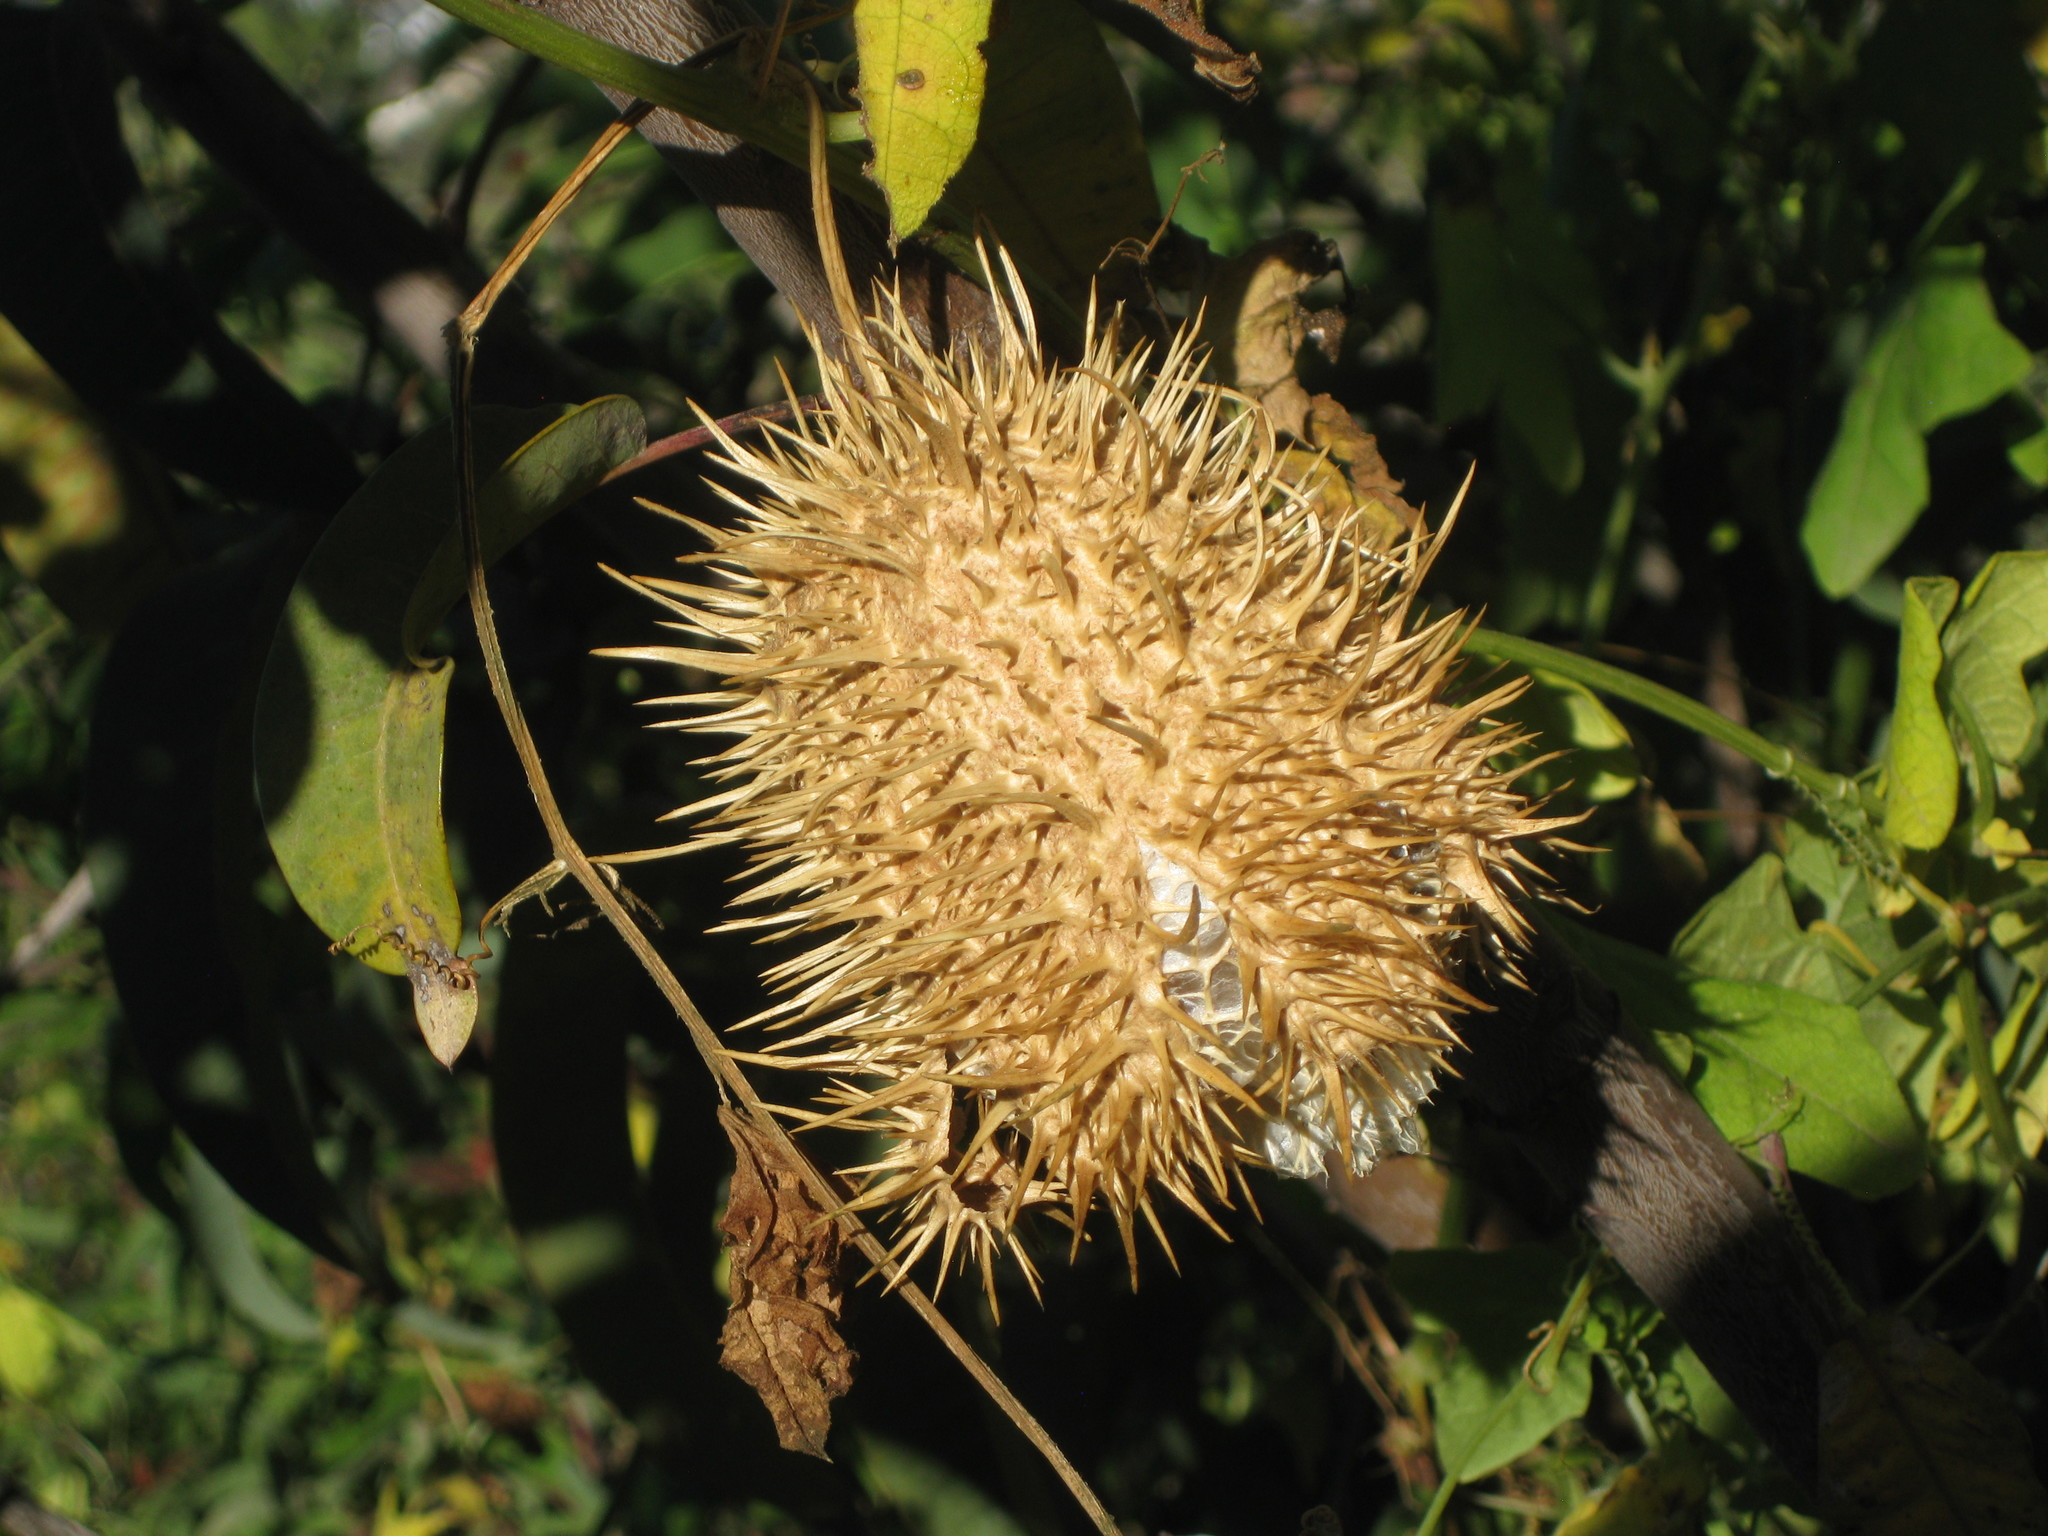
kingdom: Plantae
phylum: Tracheophyta
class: Magnoliopsida
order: Cucurbitales
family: Cucurbitaceae
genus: Marah
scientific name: Marah macrocarpa
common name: Cucamonga manroot
